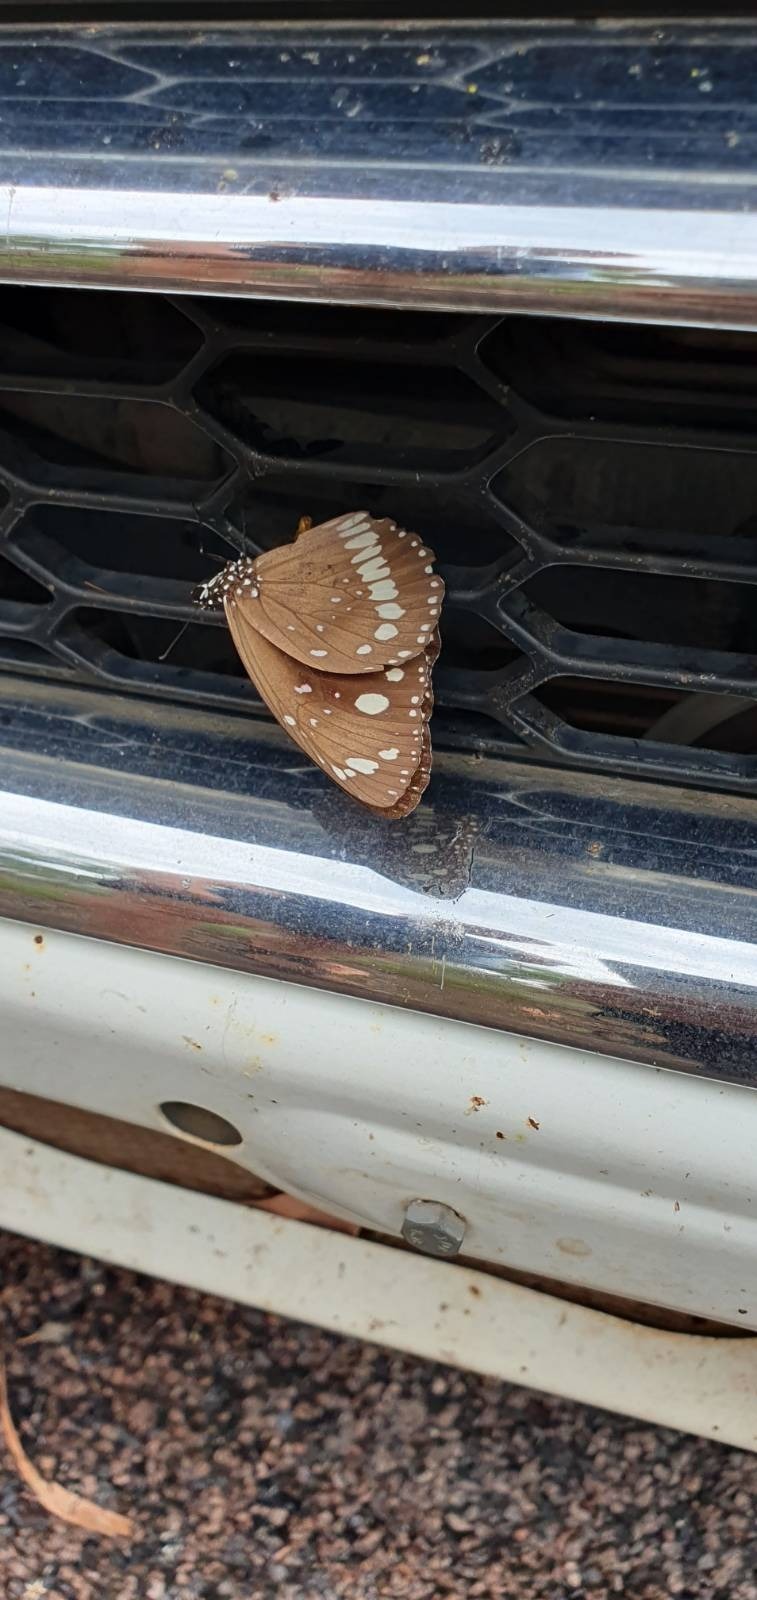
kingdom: Animalia
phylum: Arthropoda
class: Insecta
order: Lepidoptera
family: Nymphalidae
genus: Euploea
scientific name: Euploea core
